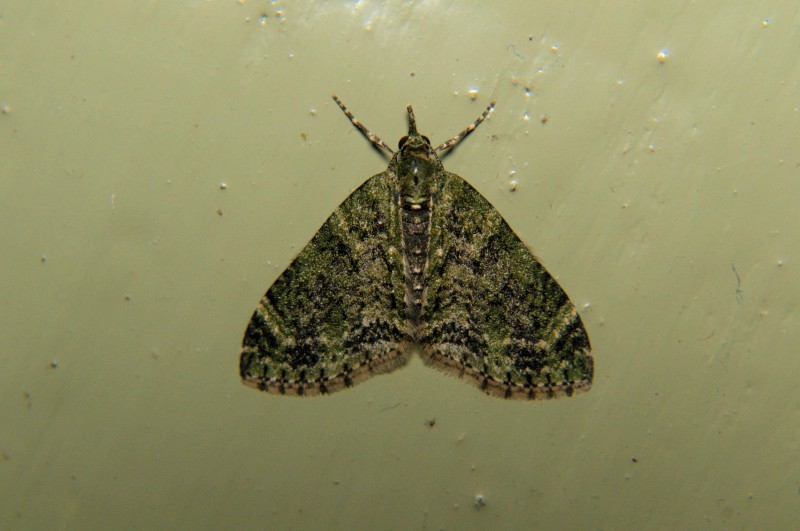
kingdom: Animalia
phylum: Arthropoda
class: Insecta
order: Lepidoptera
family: Geometridae
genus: Acasis
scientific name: Acasis viretata
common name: Yellow-barred brindle
